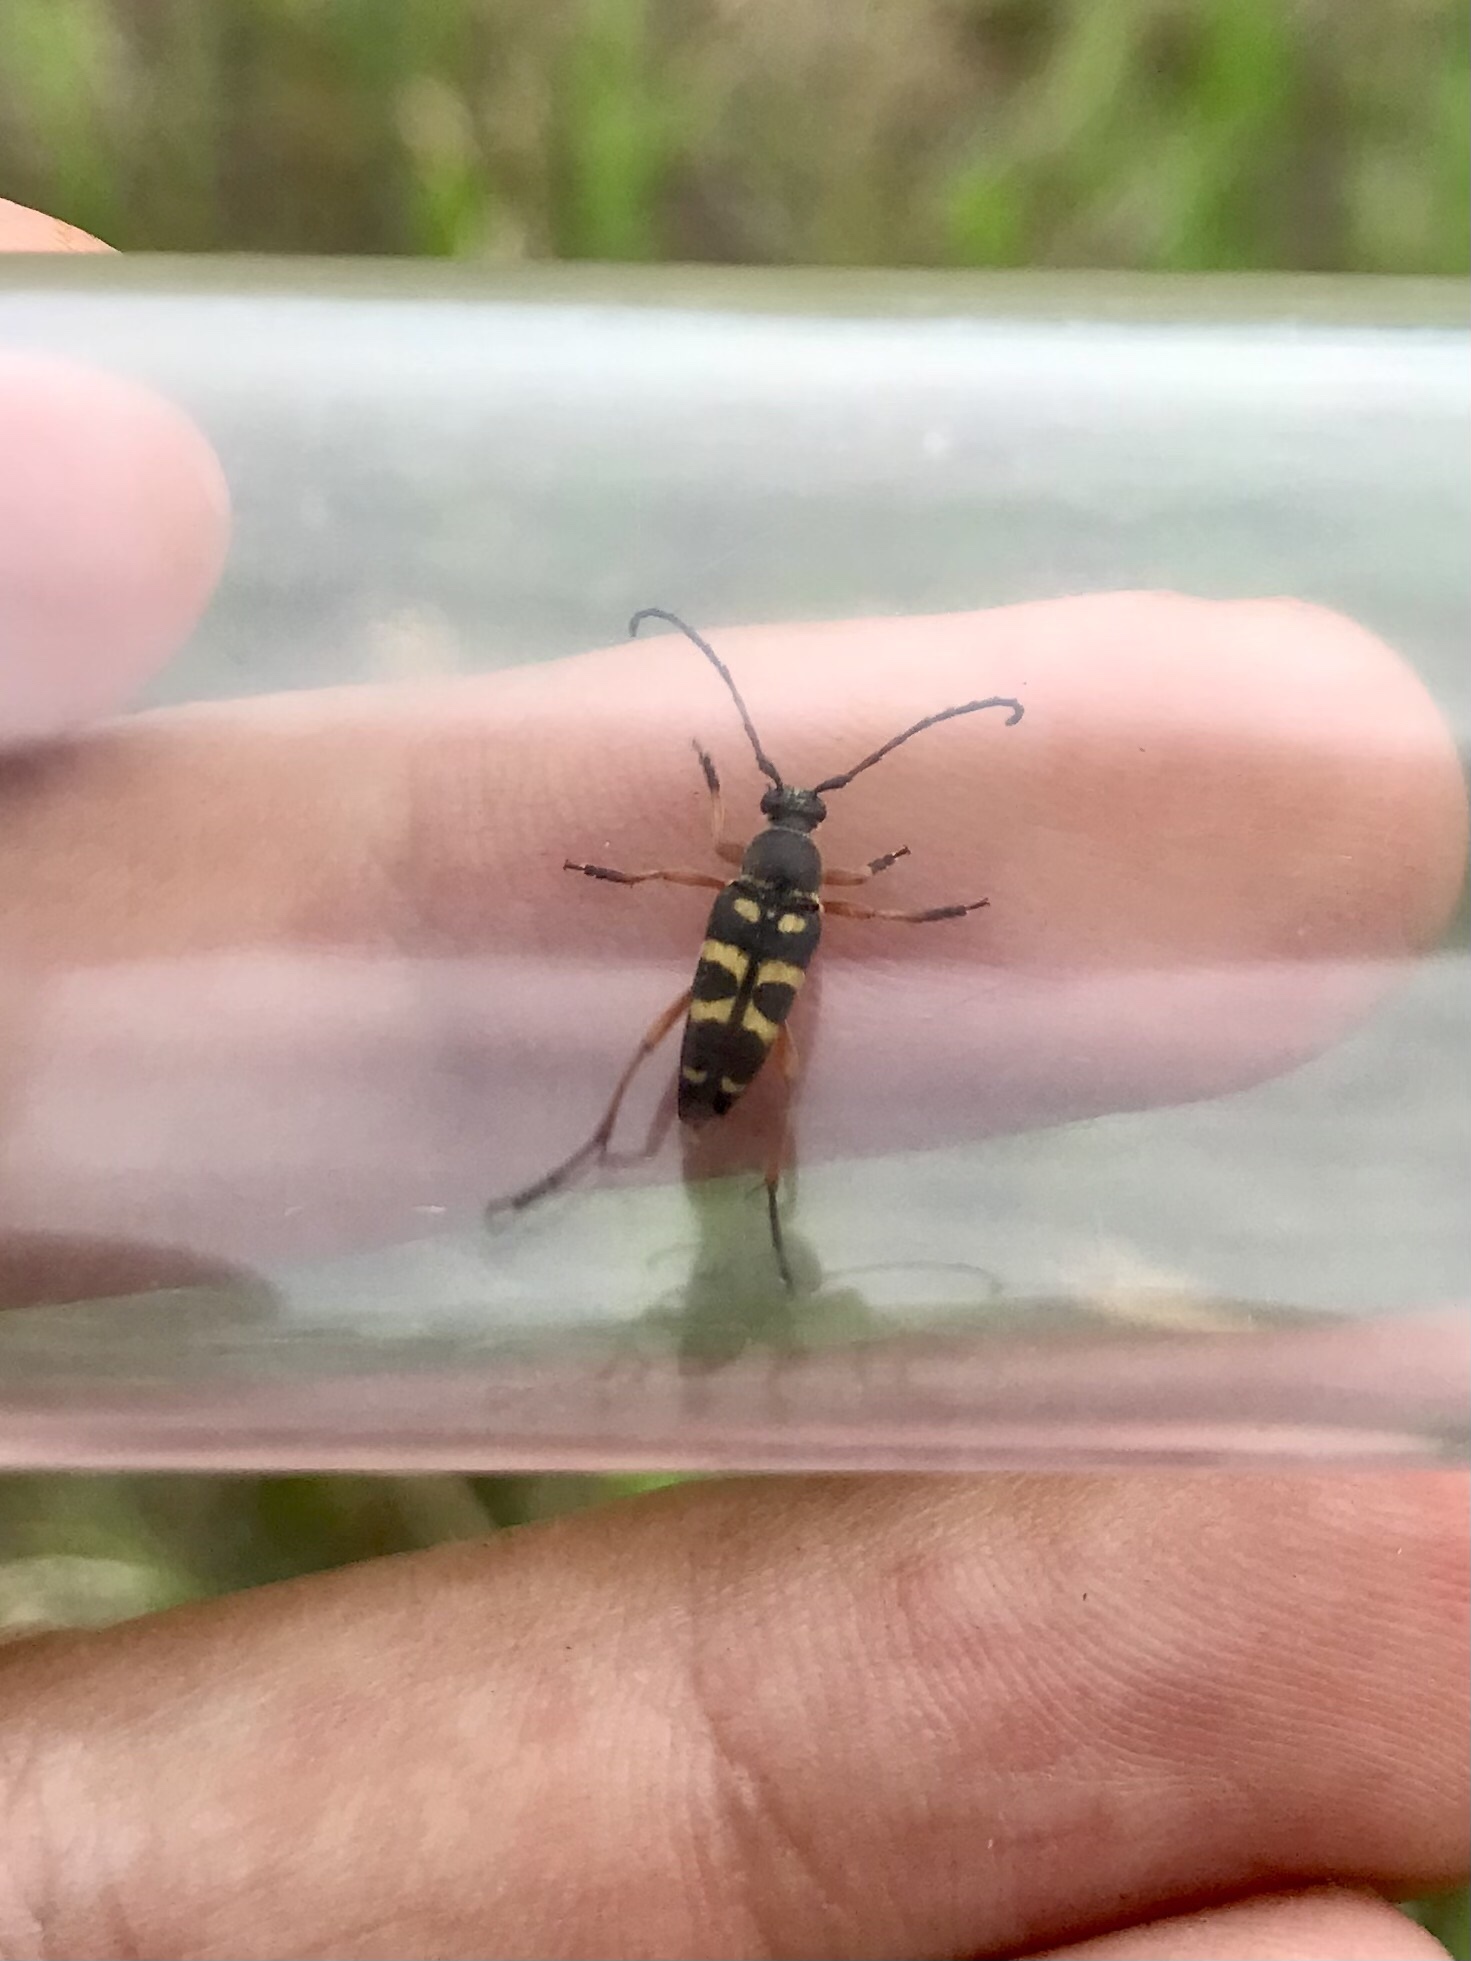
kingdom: Animalia
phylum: Arthropoda
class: Insecta
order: Coleoptera
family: Cerambycidae
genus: Typocerus
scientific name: Typocerus sparsus
